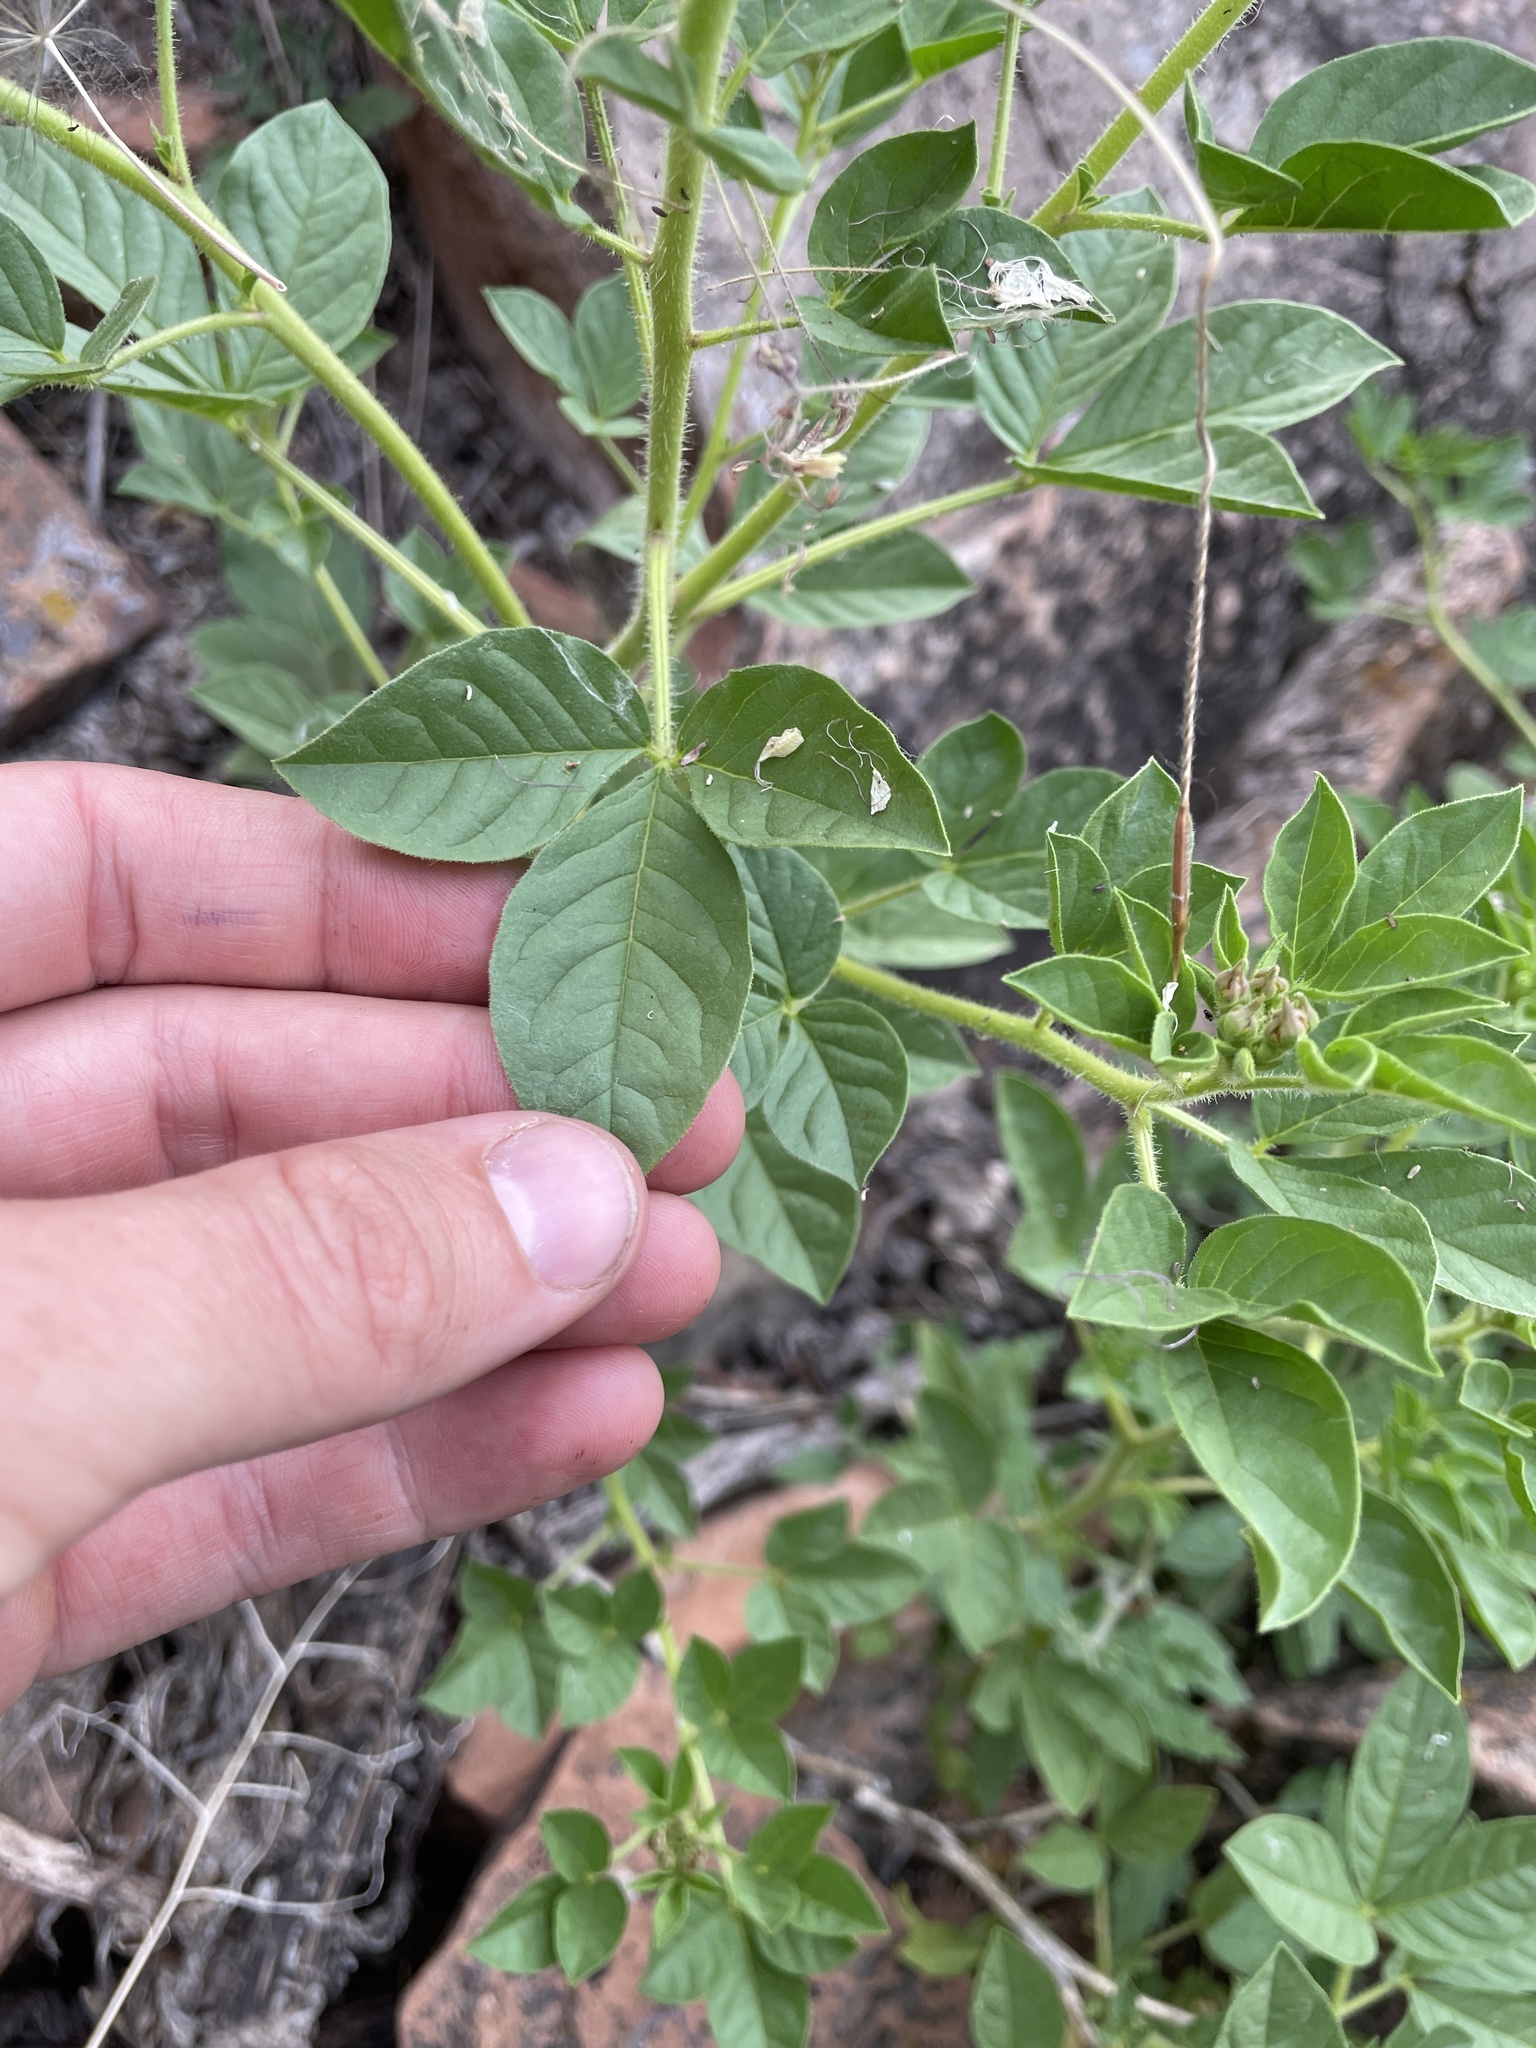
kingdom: Plantae
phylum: Tracheophyta
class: Magnoliopsida
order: Brassicales
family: Cleomaceae
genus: Polanisia
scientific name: Polanisia dodecandra
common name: Clammyweed
